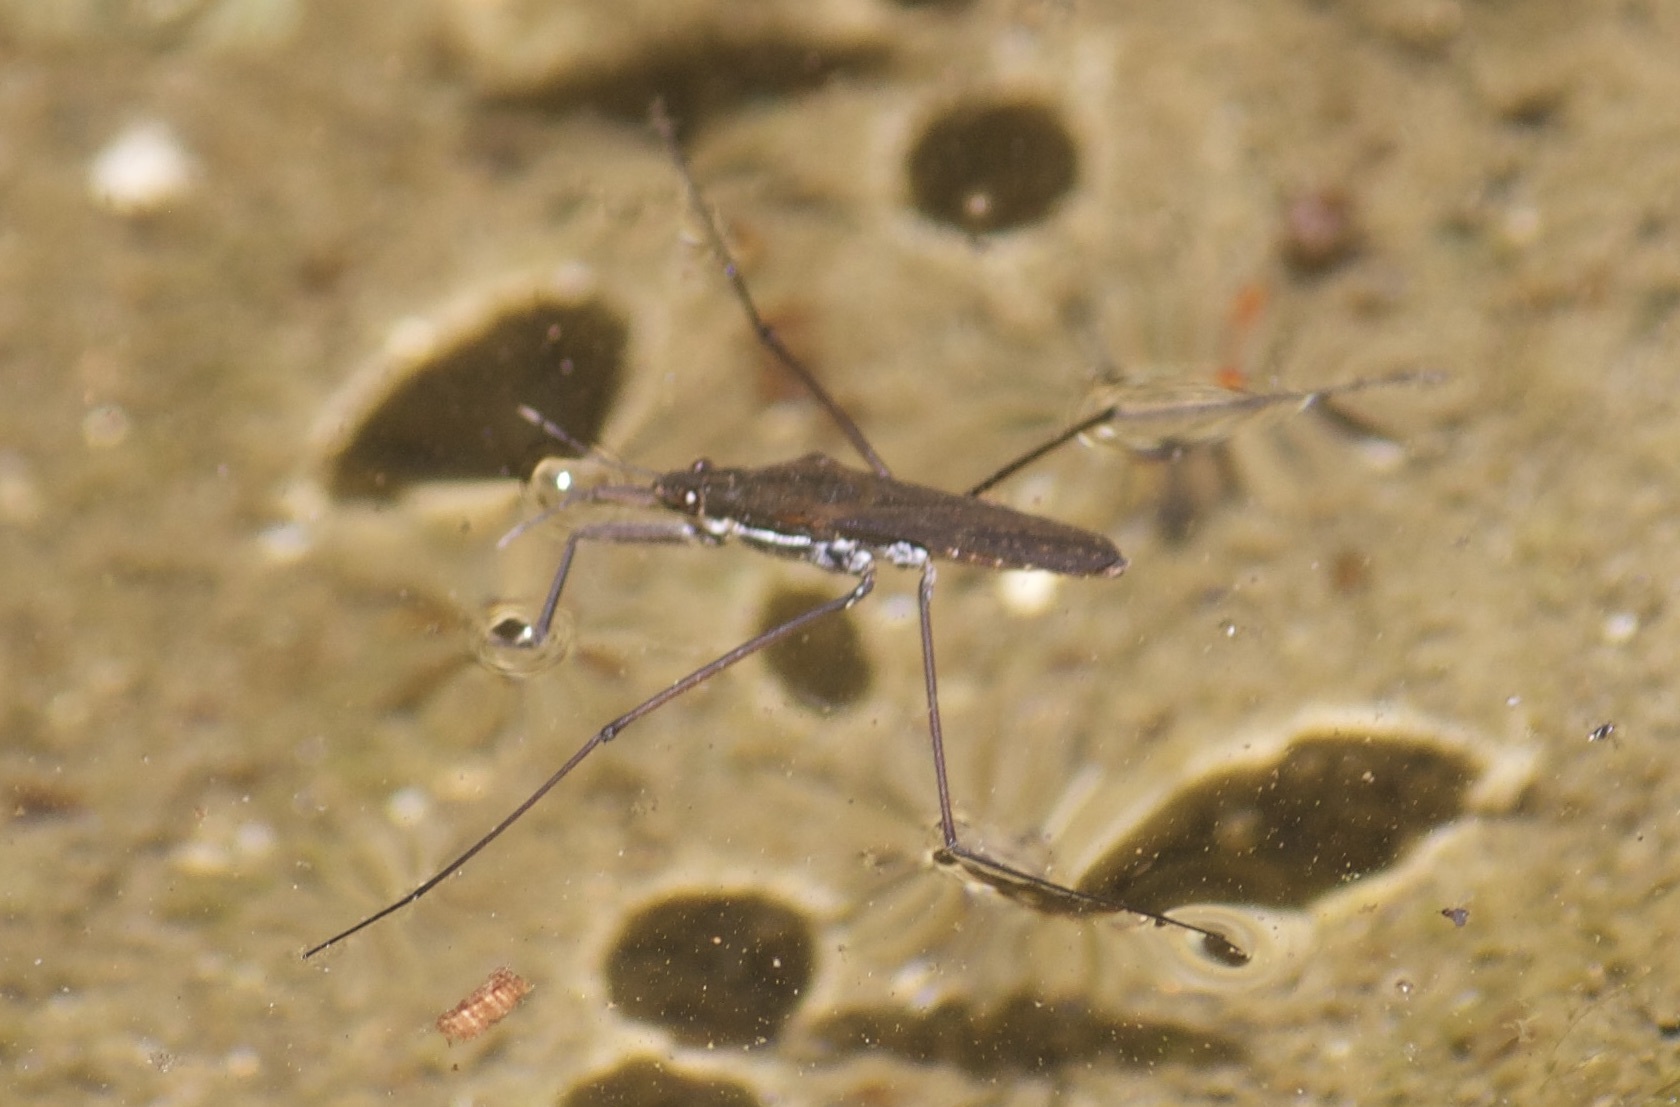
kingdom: Animalia
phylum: Arthropoda
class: Insecta
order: Hemiptera
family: Gerridae
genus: Aquarius
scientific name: Aquarius remigis
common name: Common water strider
